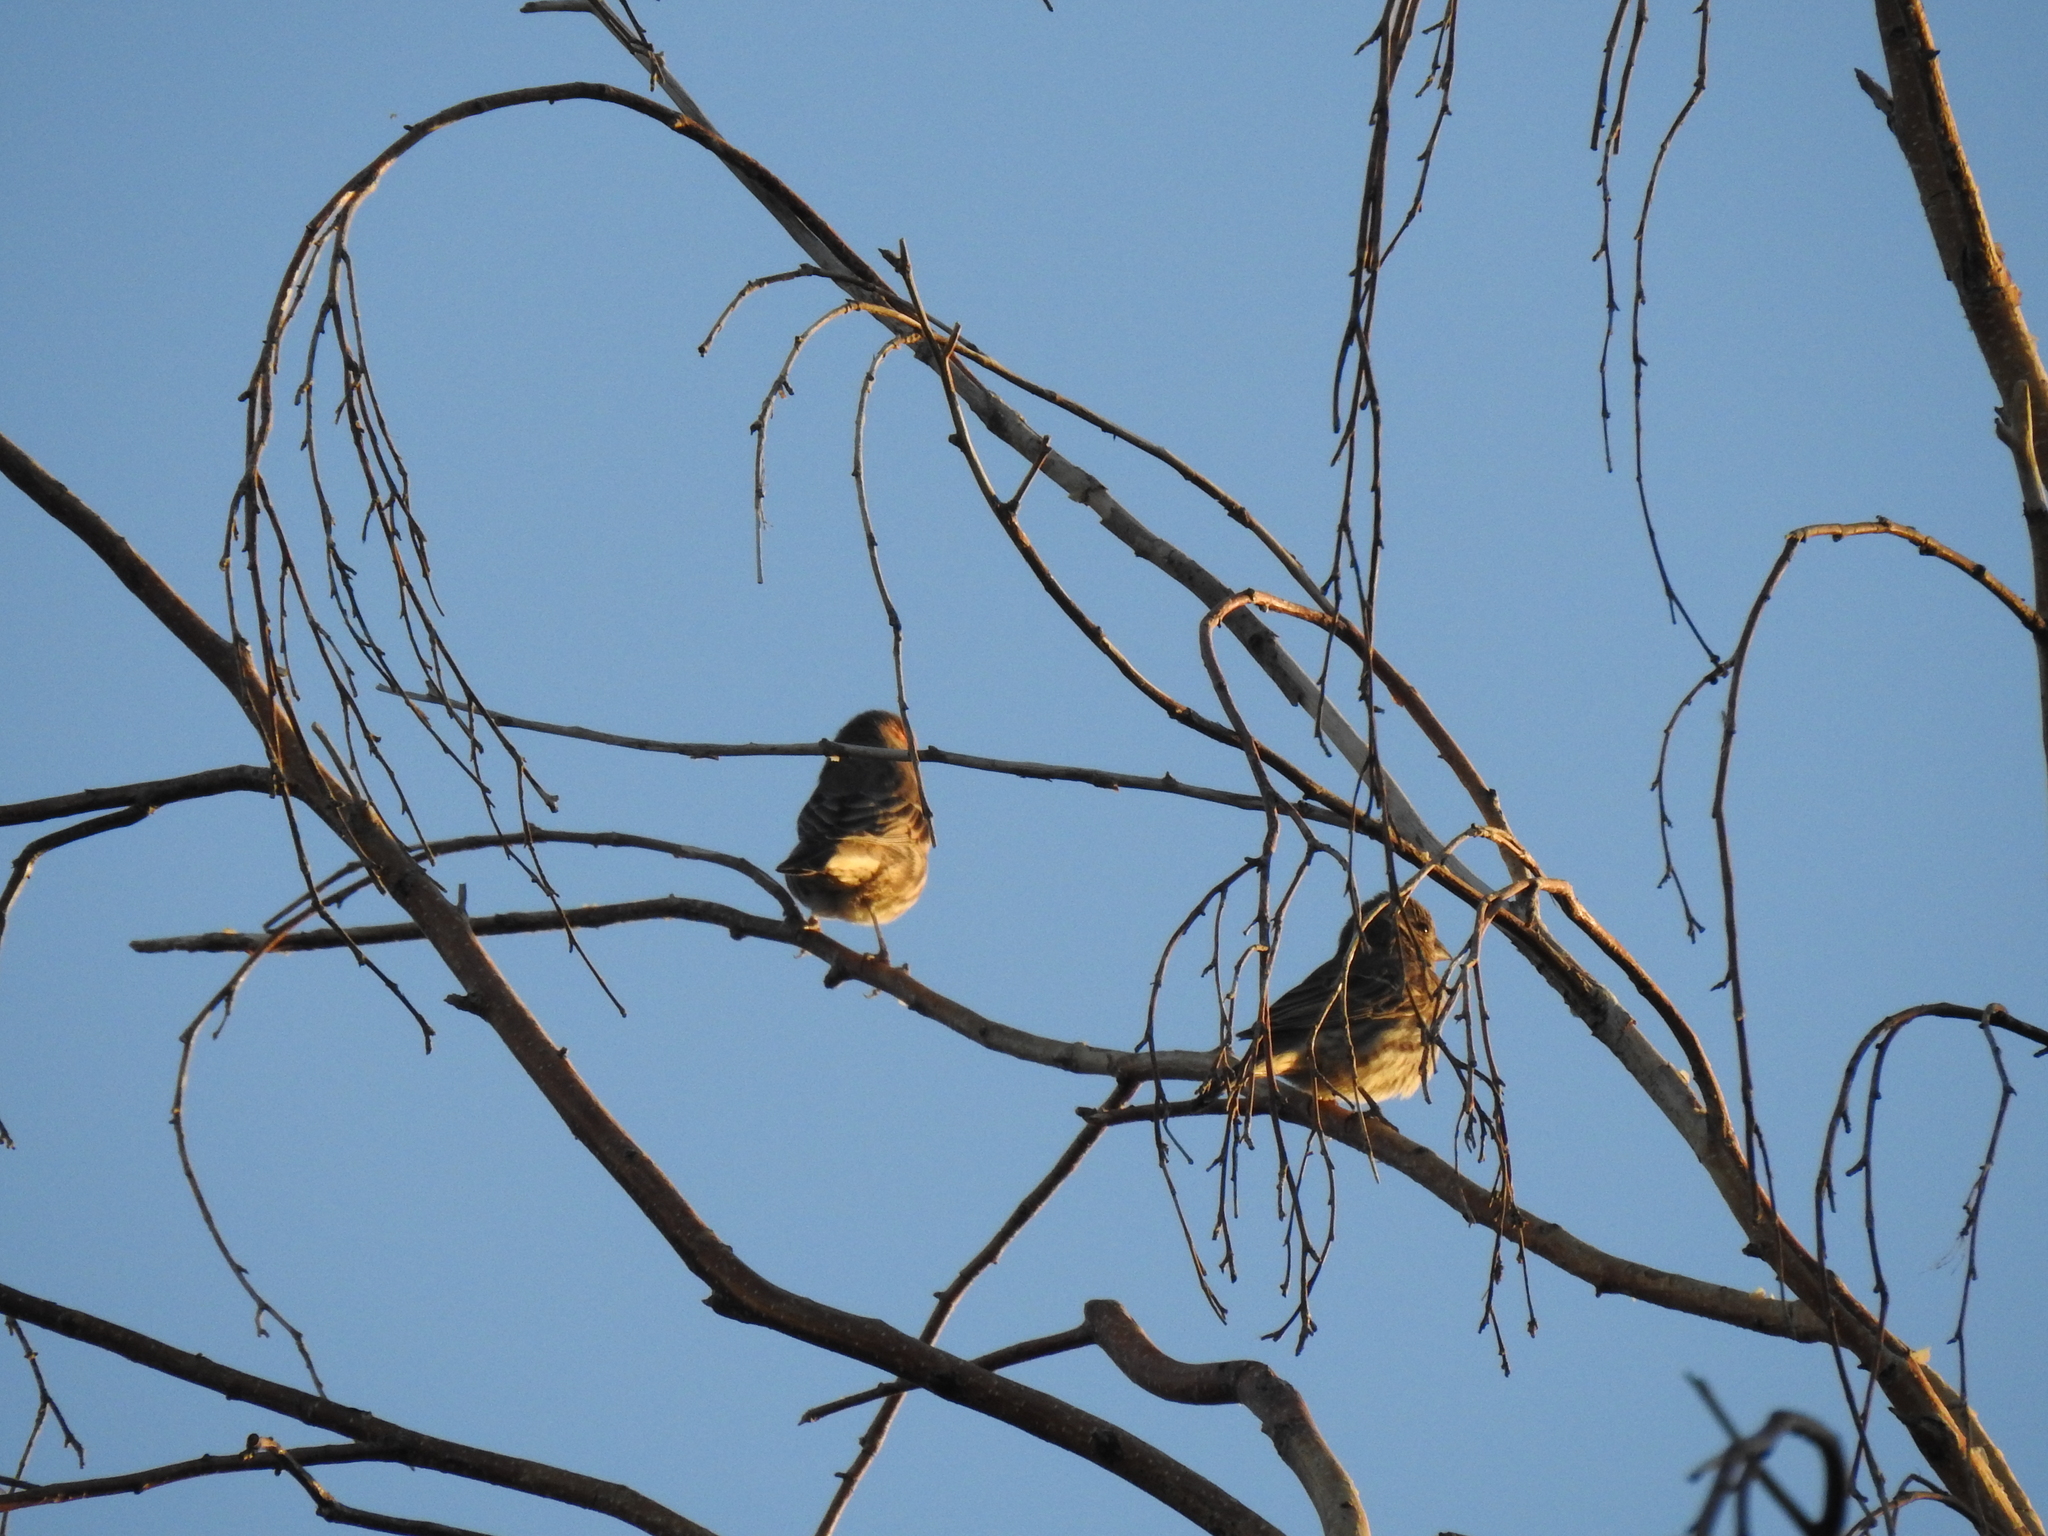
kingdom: Animalia
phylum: Chordata
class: Aves
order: Passeriformes
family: Fringillidae
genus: Haemorhous
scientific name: Haemorhous mexicanus
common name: House finch
